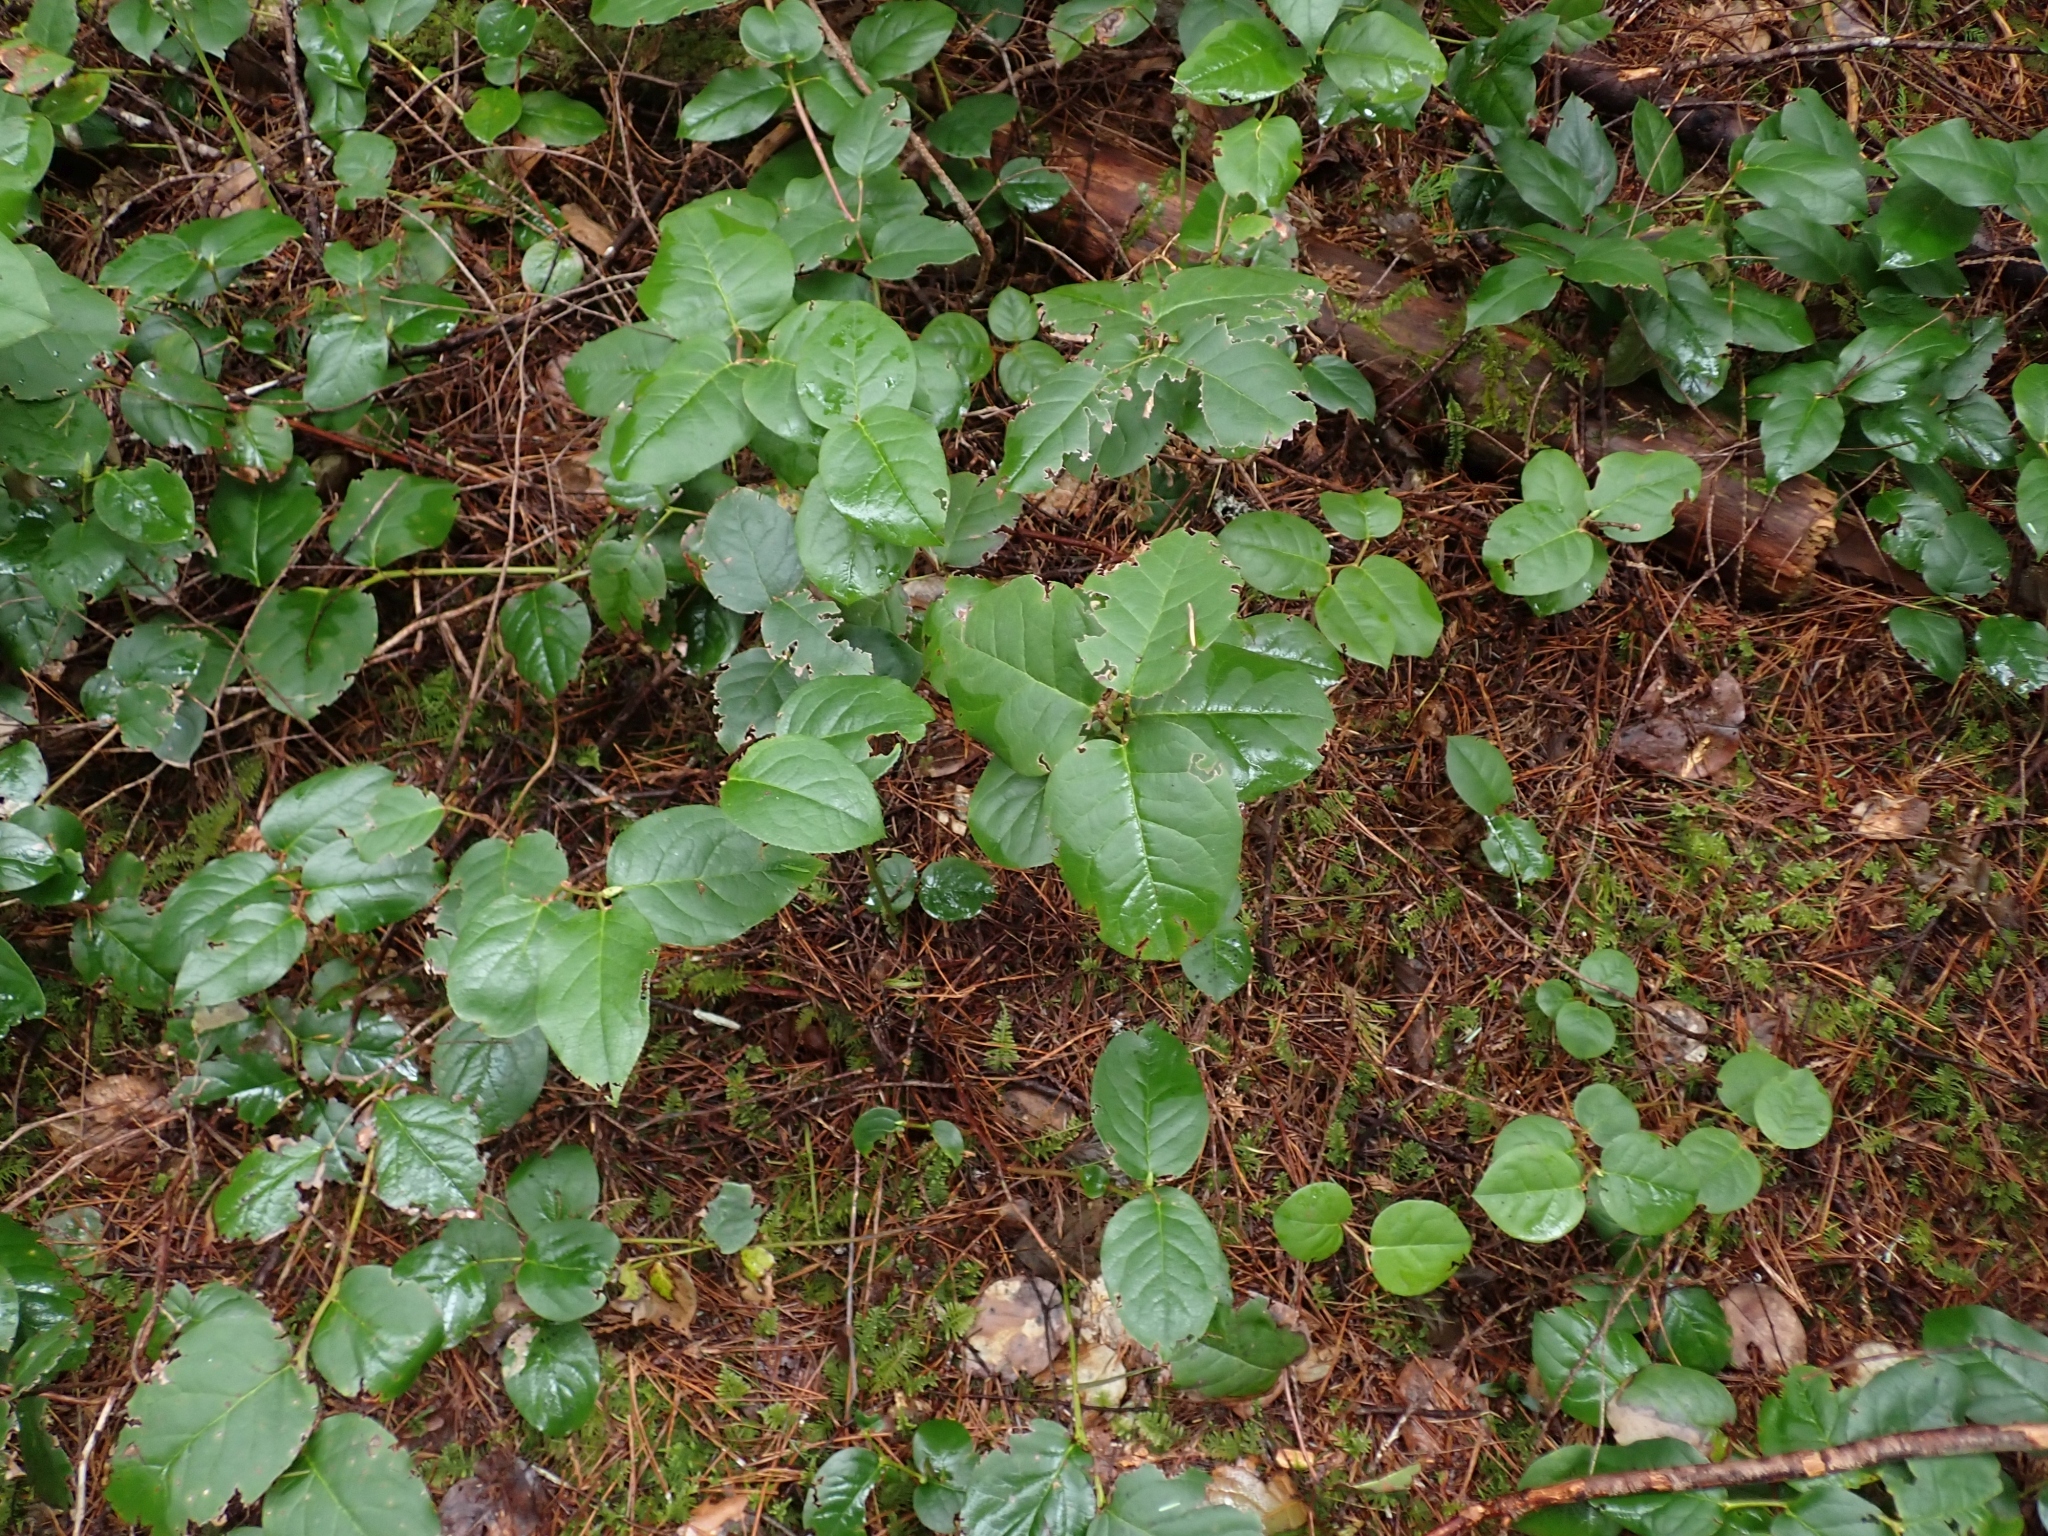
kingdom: Plantae
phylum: Tracheophyta
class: Magnoliopsida
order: Ericales
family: Ericaceae
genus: Gaultheria
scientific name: Gaultheria shallon
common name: Shallon
